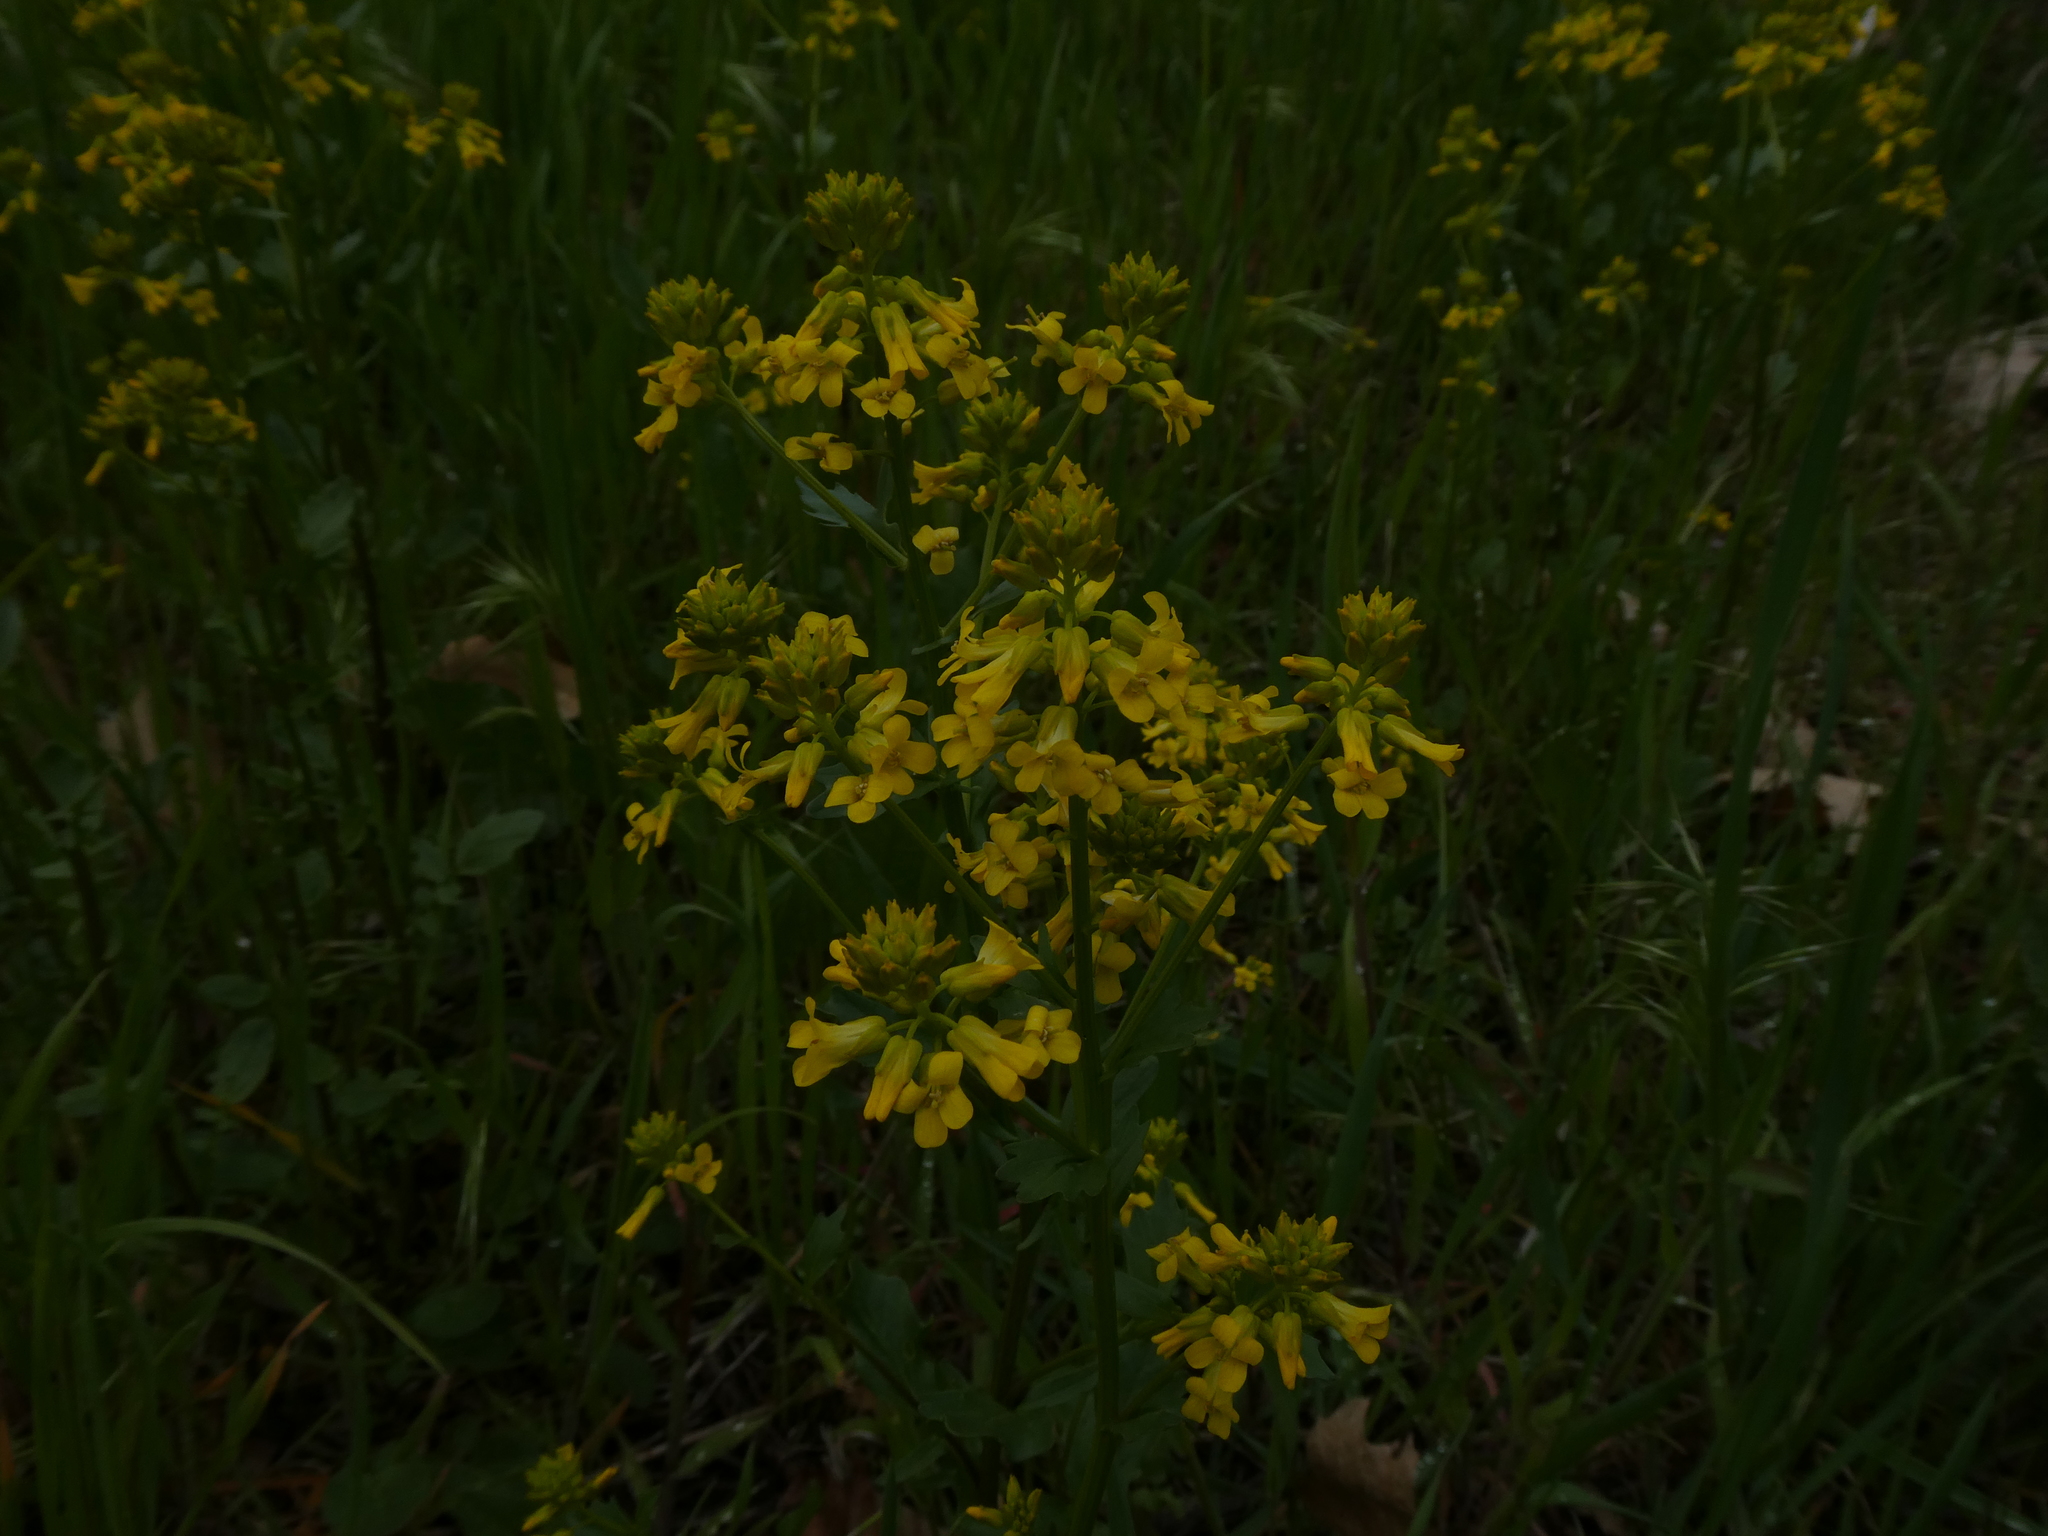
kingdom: Plantae
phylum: Tracheophyta
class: Magnoliopsida
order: Brassicales
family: Brassicaceae
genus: Barbarea
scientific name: Barbarea vulgaris
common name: Cressy-greens
